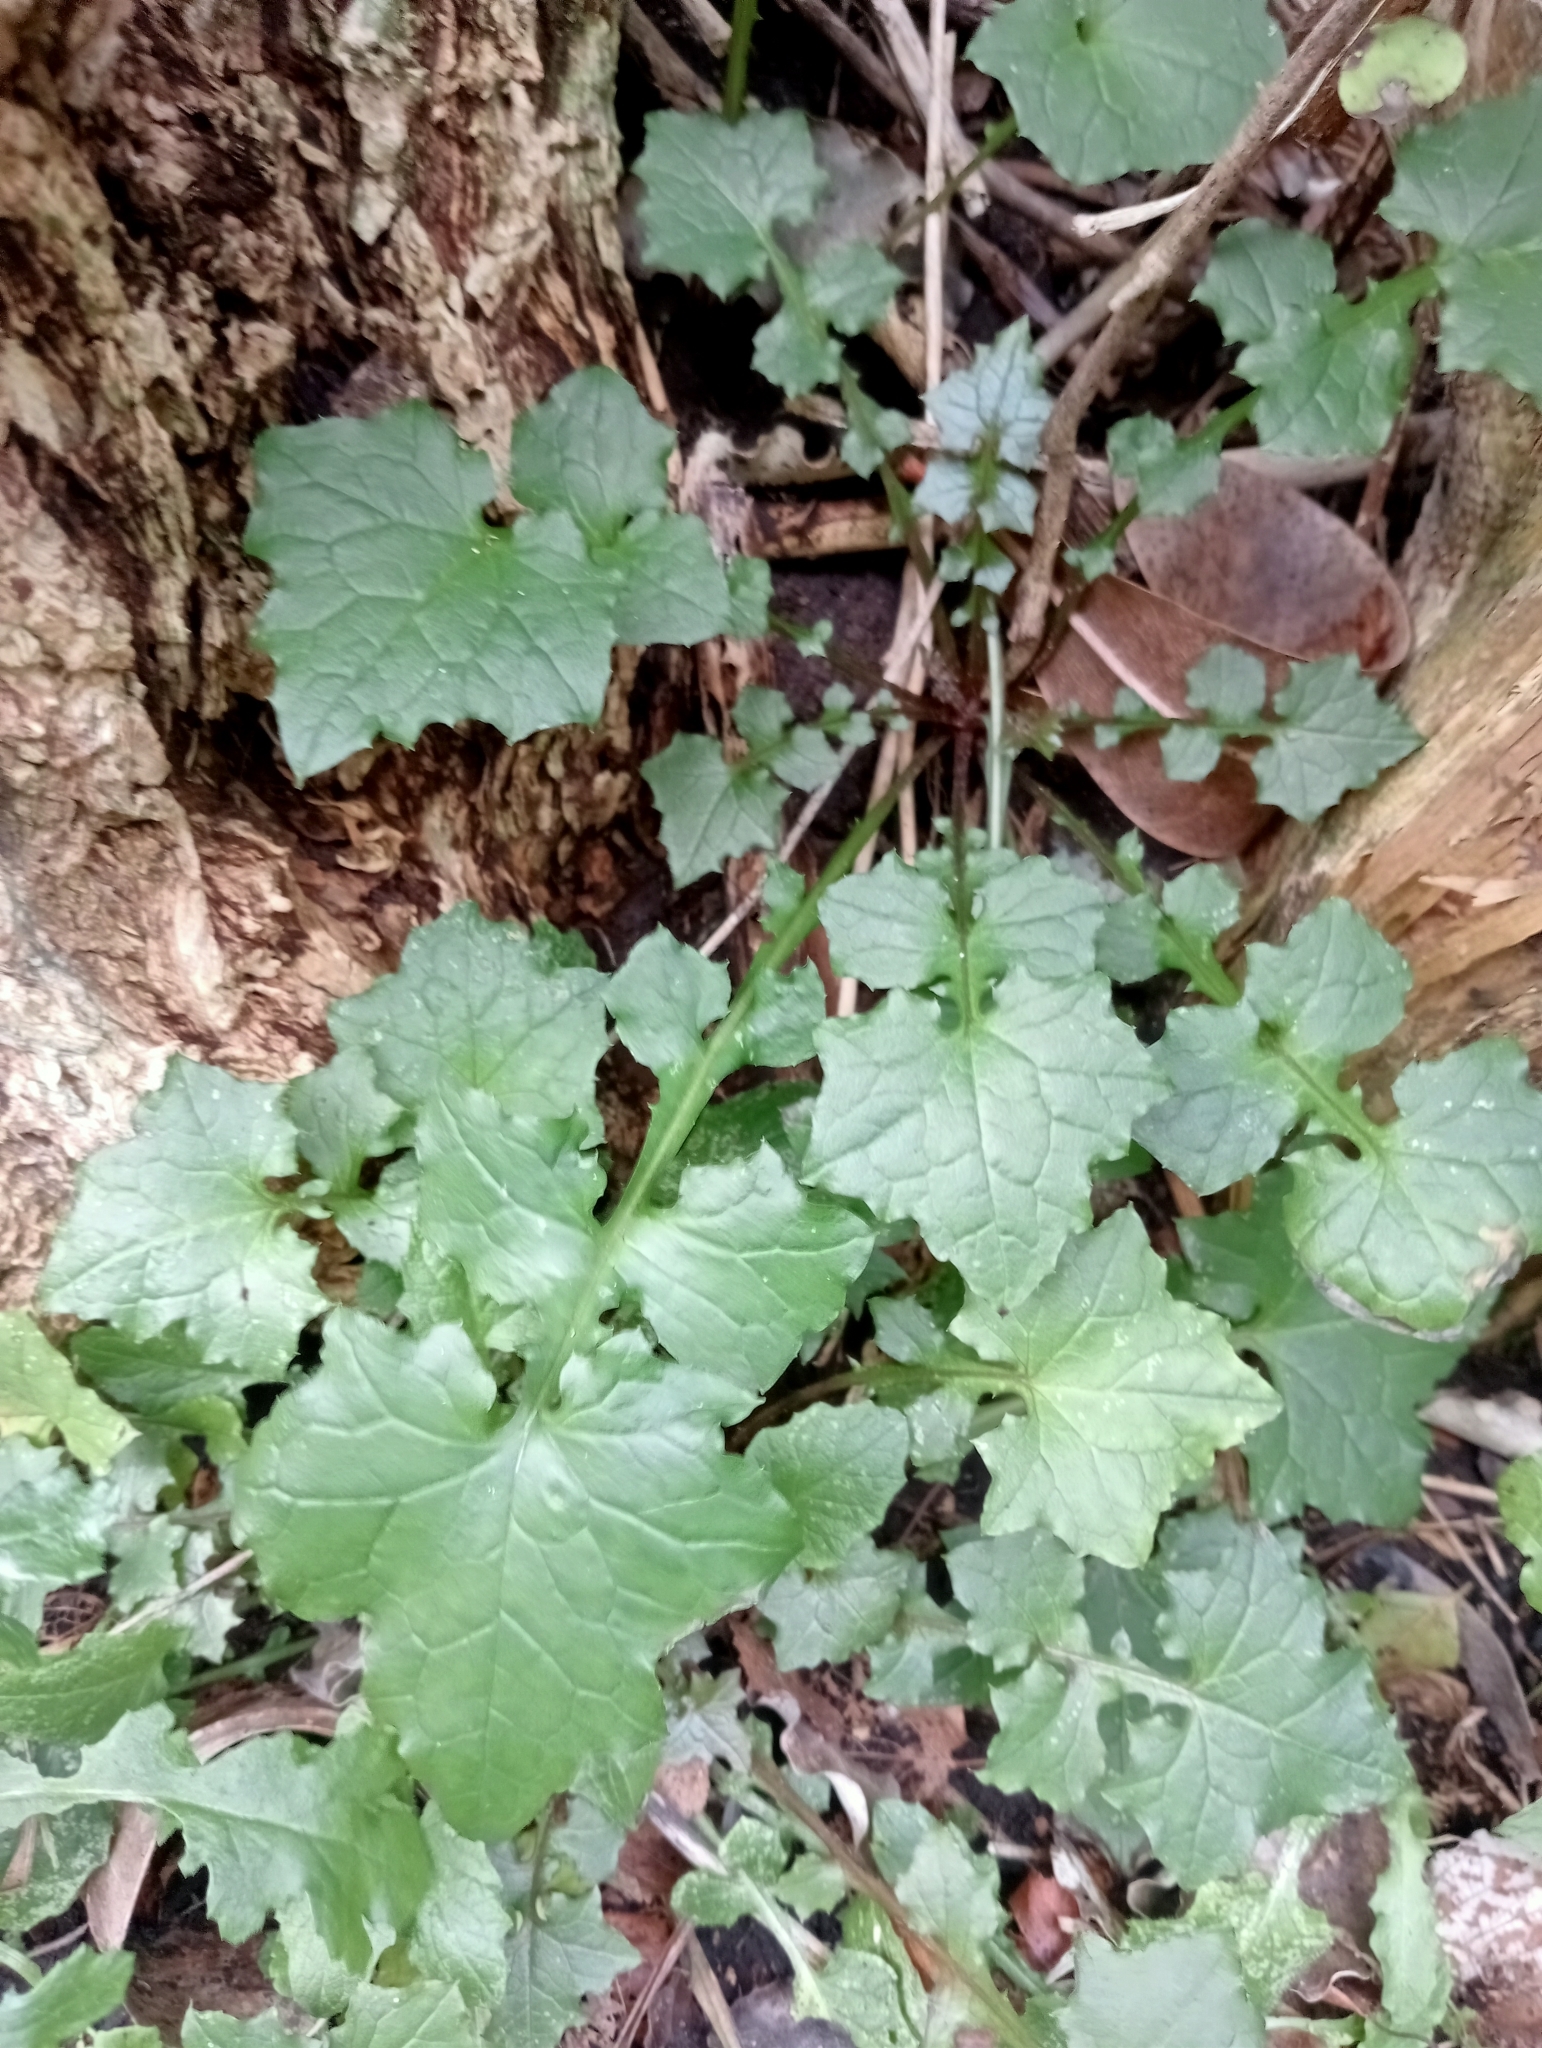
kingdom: Plantae
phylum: Tracheophyta
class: Magnoliopsida
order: Asterales
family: Asteraceae
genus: Mycelis
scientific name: Mycelis muralis
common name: Wall lettuce
